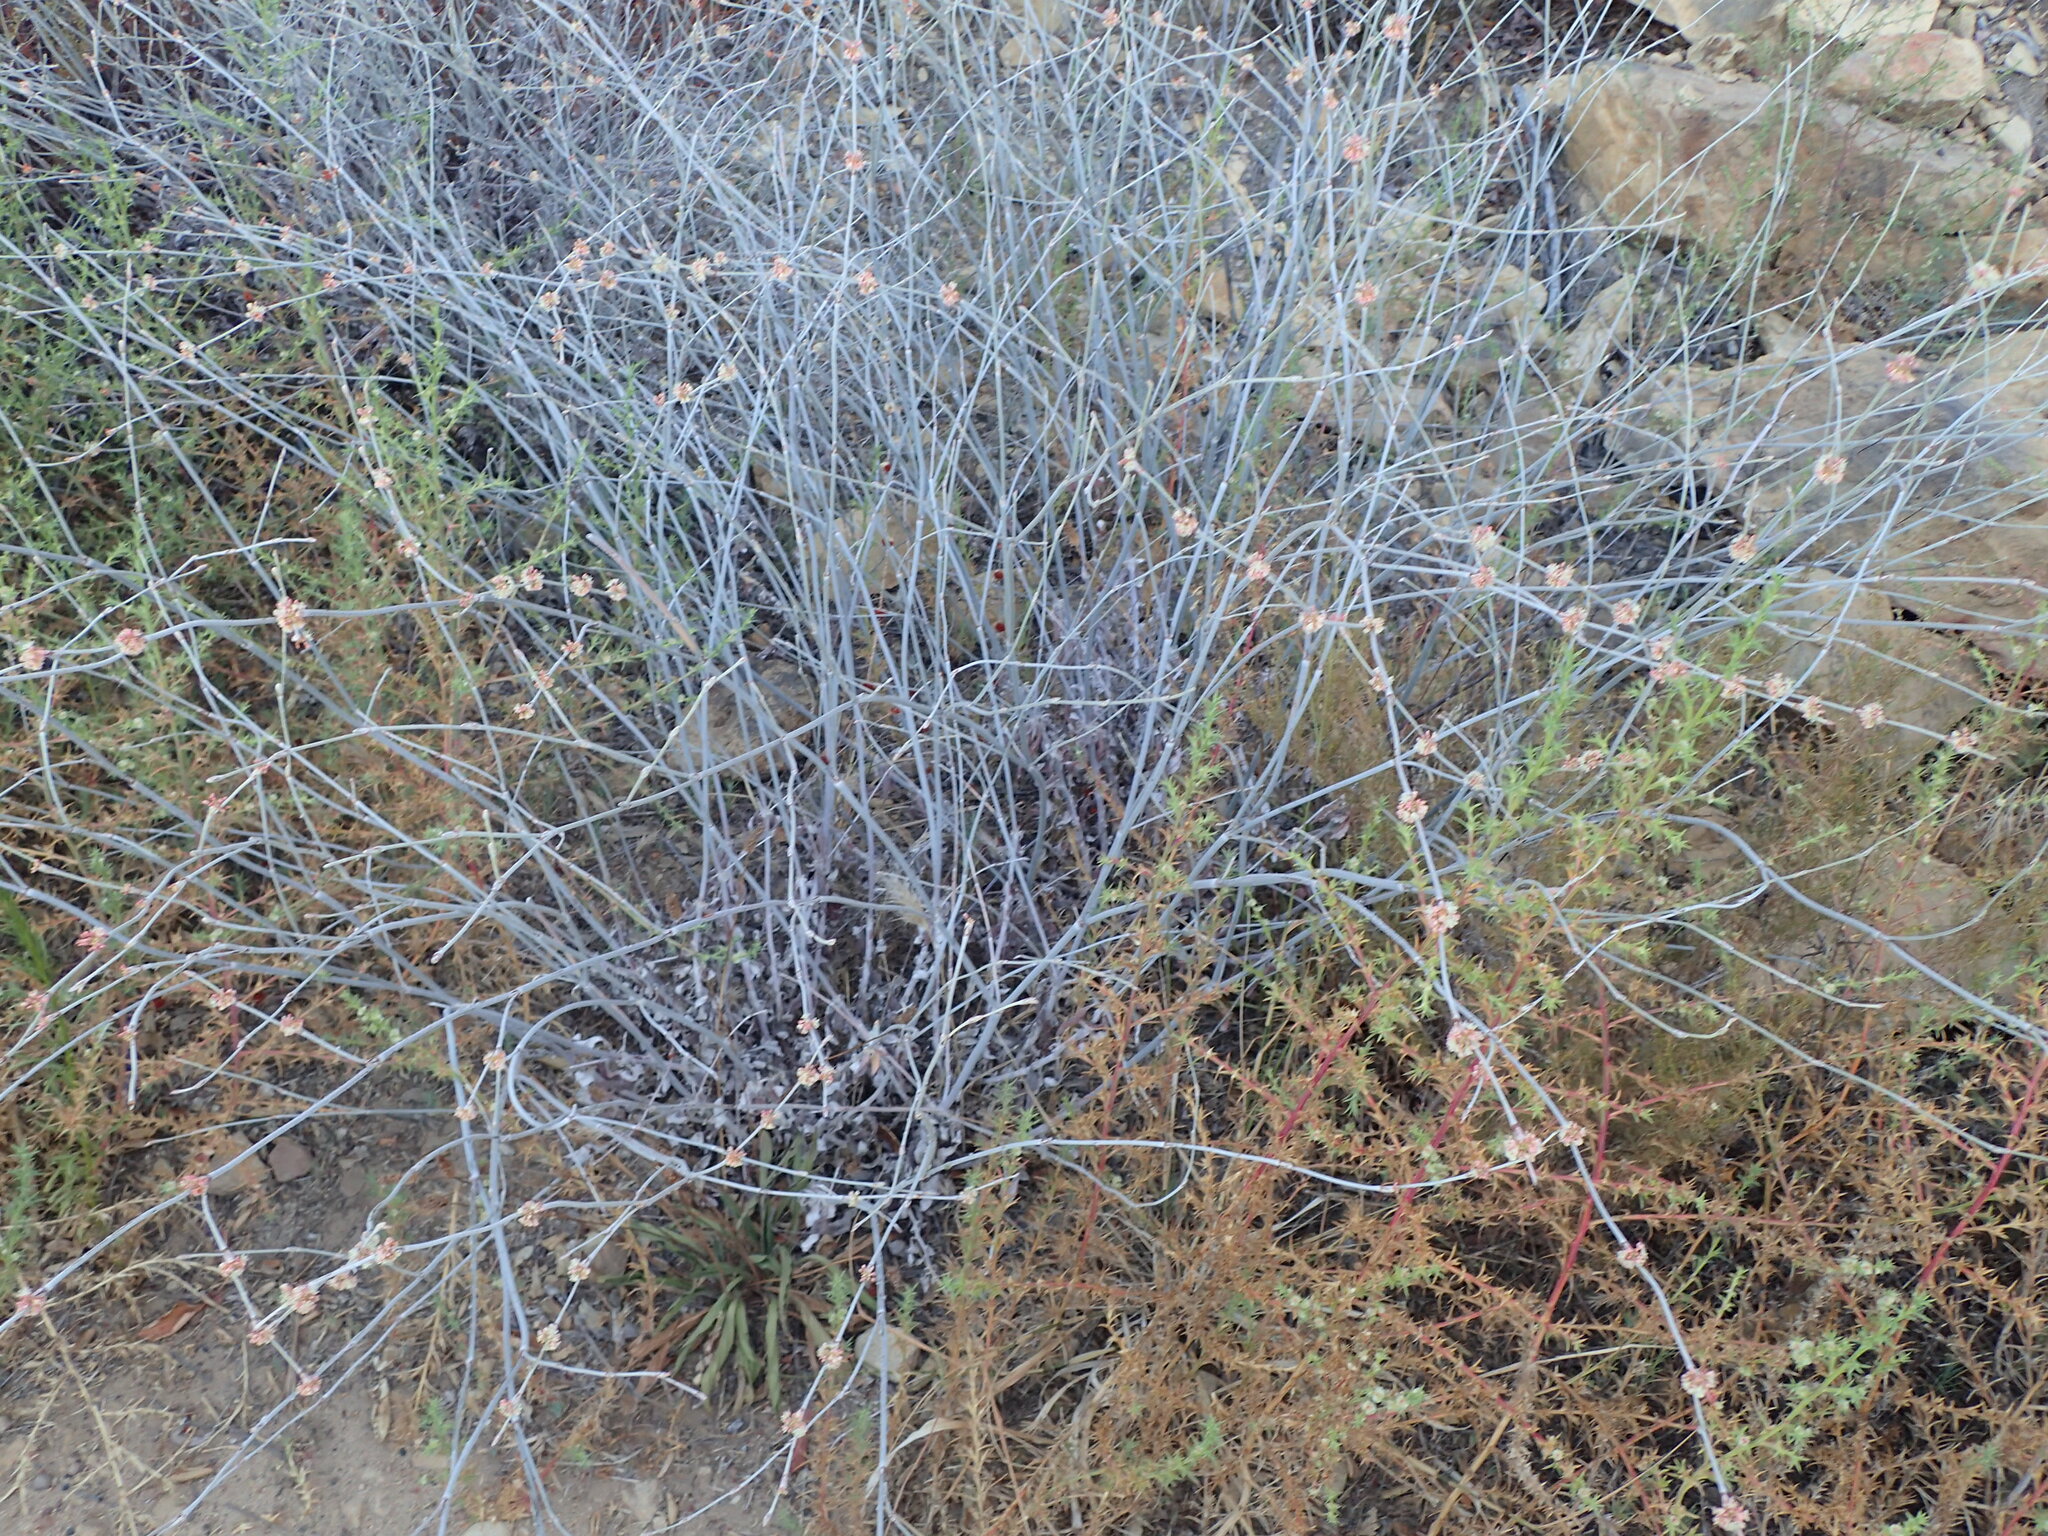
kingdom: Plantae
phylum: Tracheophyta
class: Magnoliopsida
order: Caryophyllales
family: Polygonaceae
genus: Eriogonum
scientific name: Eriogonum elongatum
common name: Long-stem wild buckwheat
